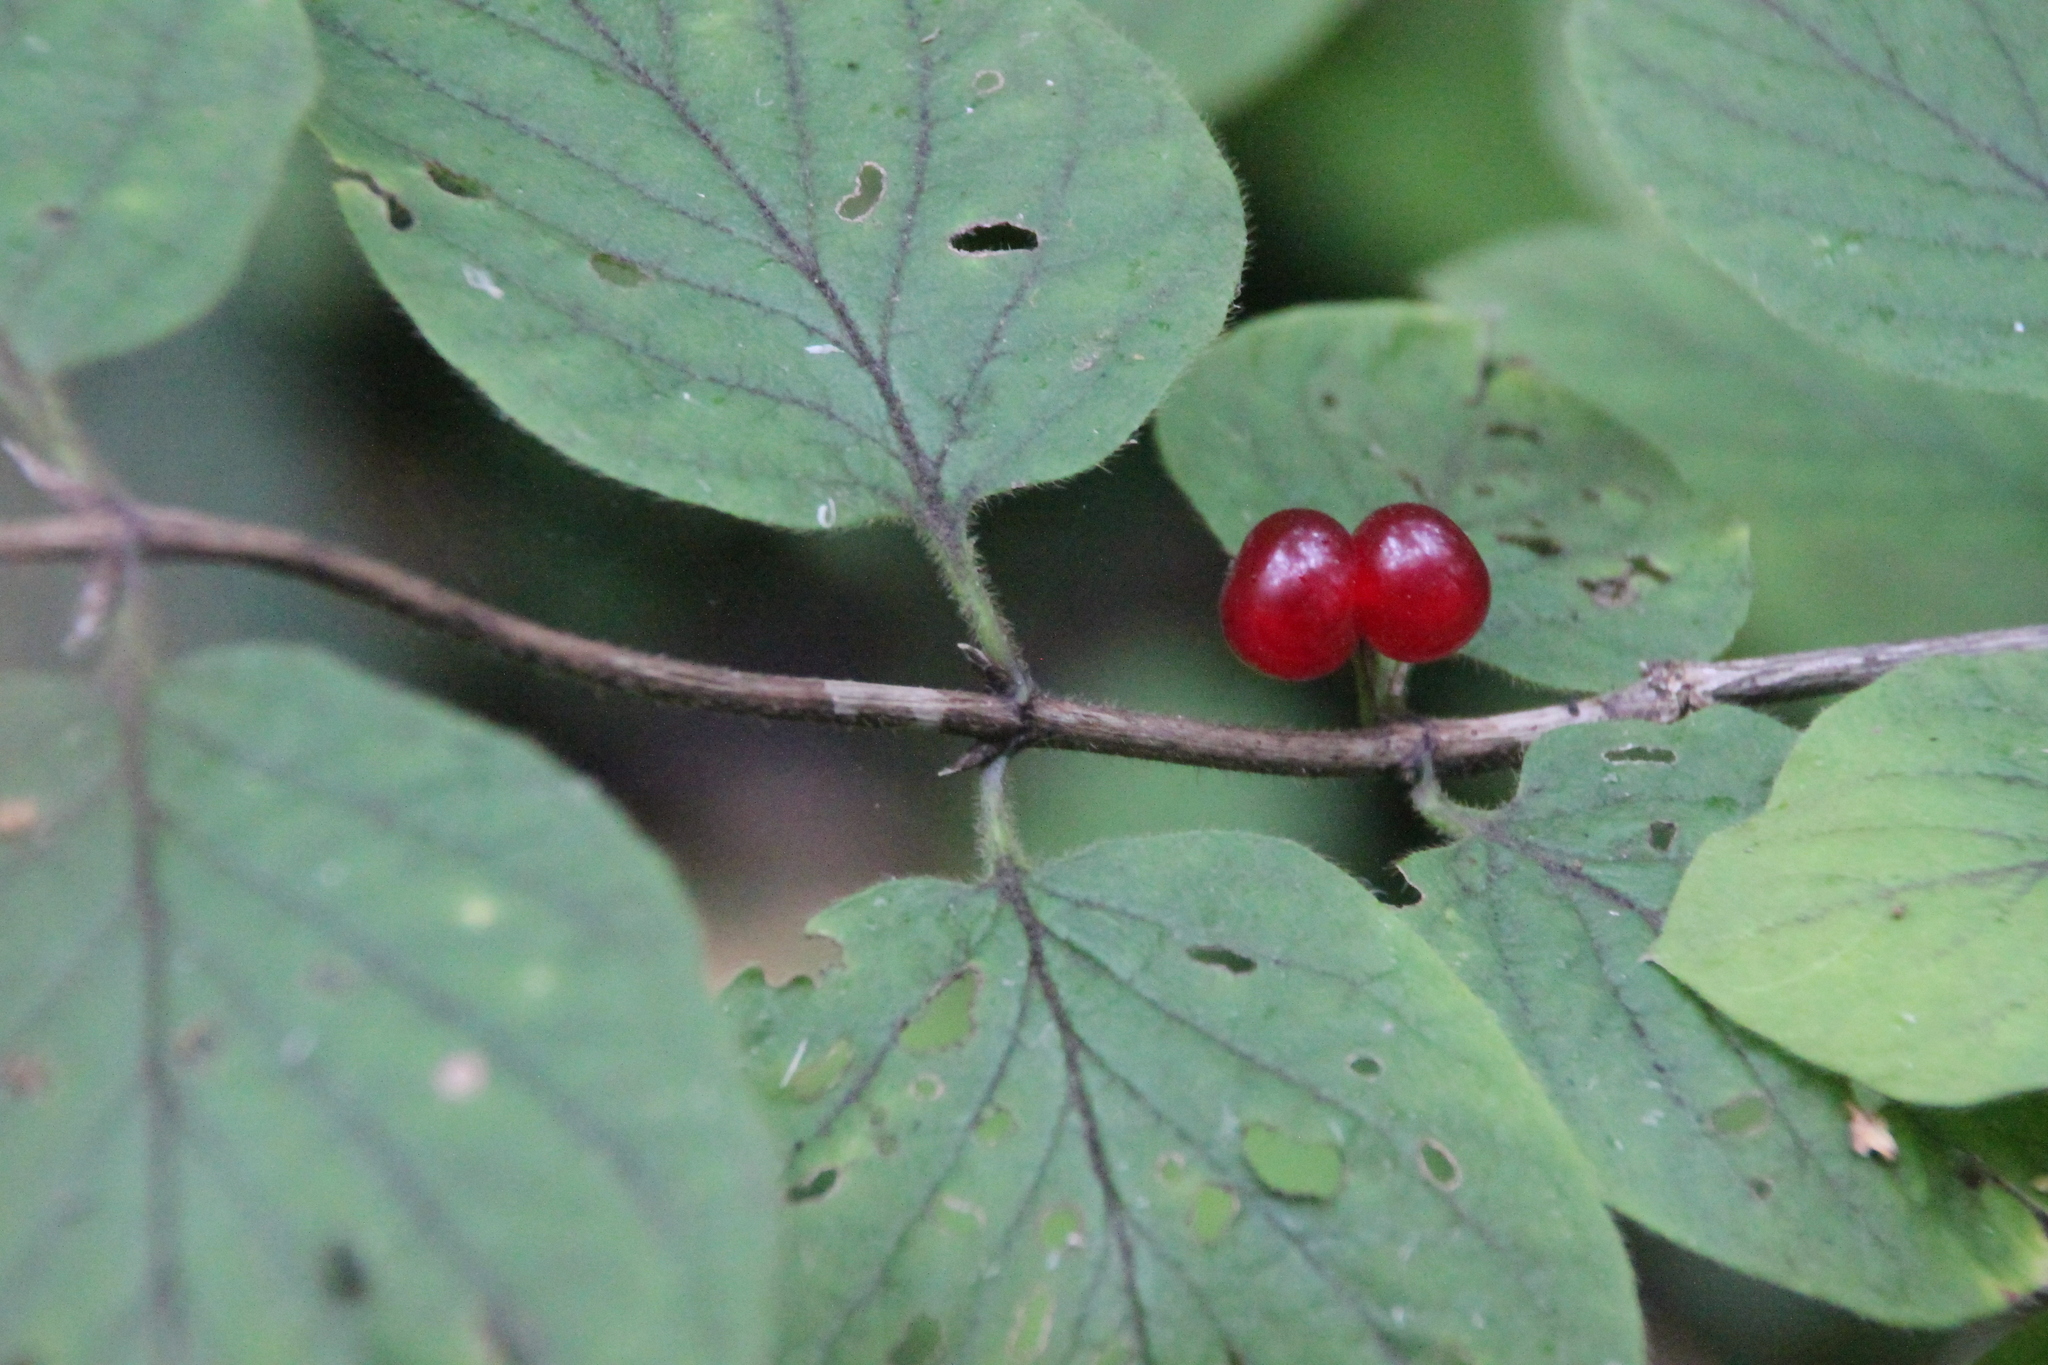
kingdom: Plantae
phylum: Tracheophyta
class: Magnoliopsida
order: Dipsacales
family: Caprifoliaceae
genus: Lonicera
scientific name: Lonicera xylosteum
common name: Fly honeysuckle
